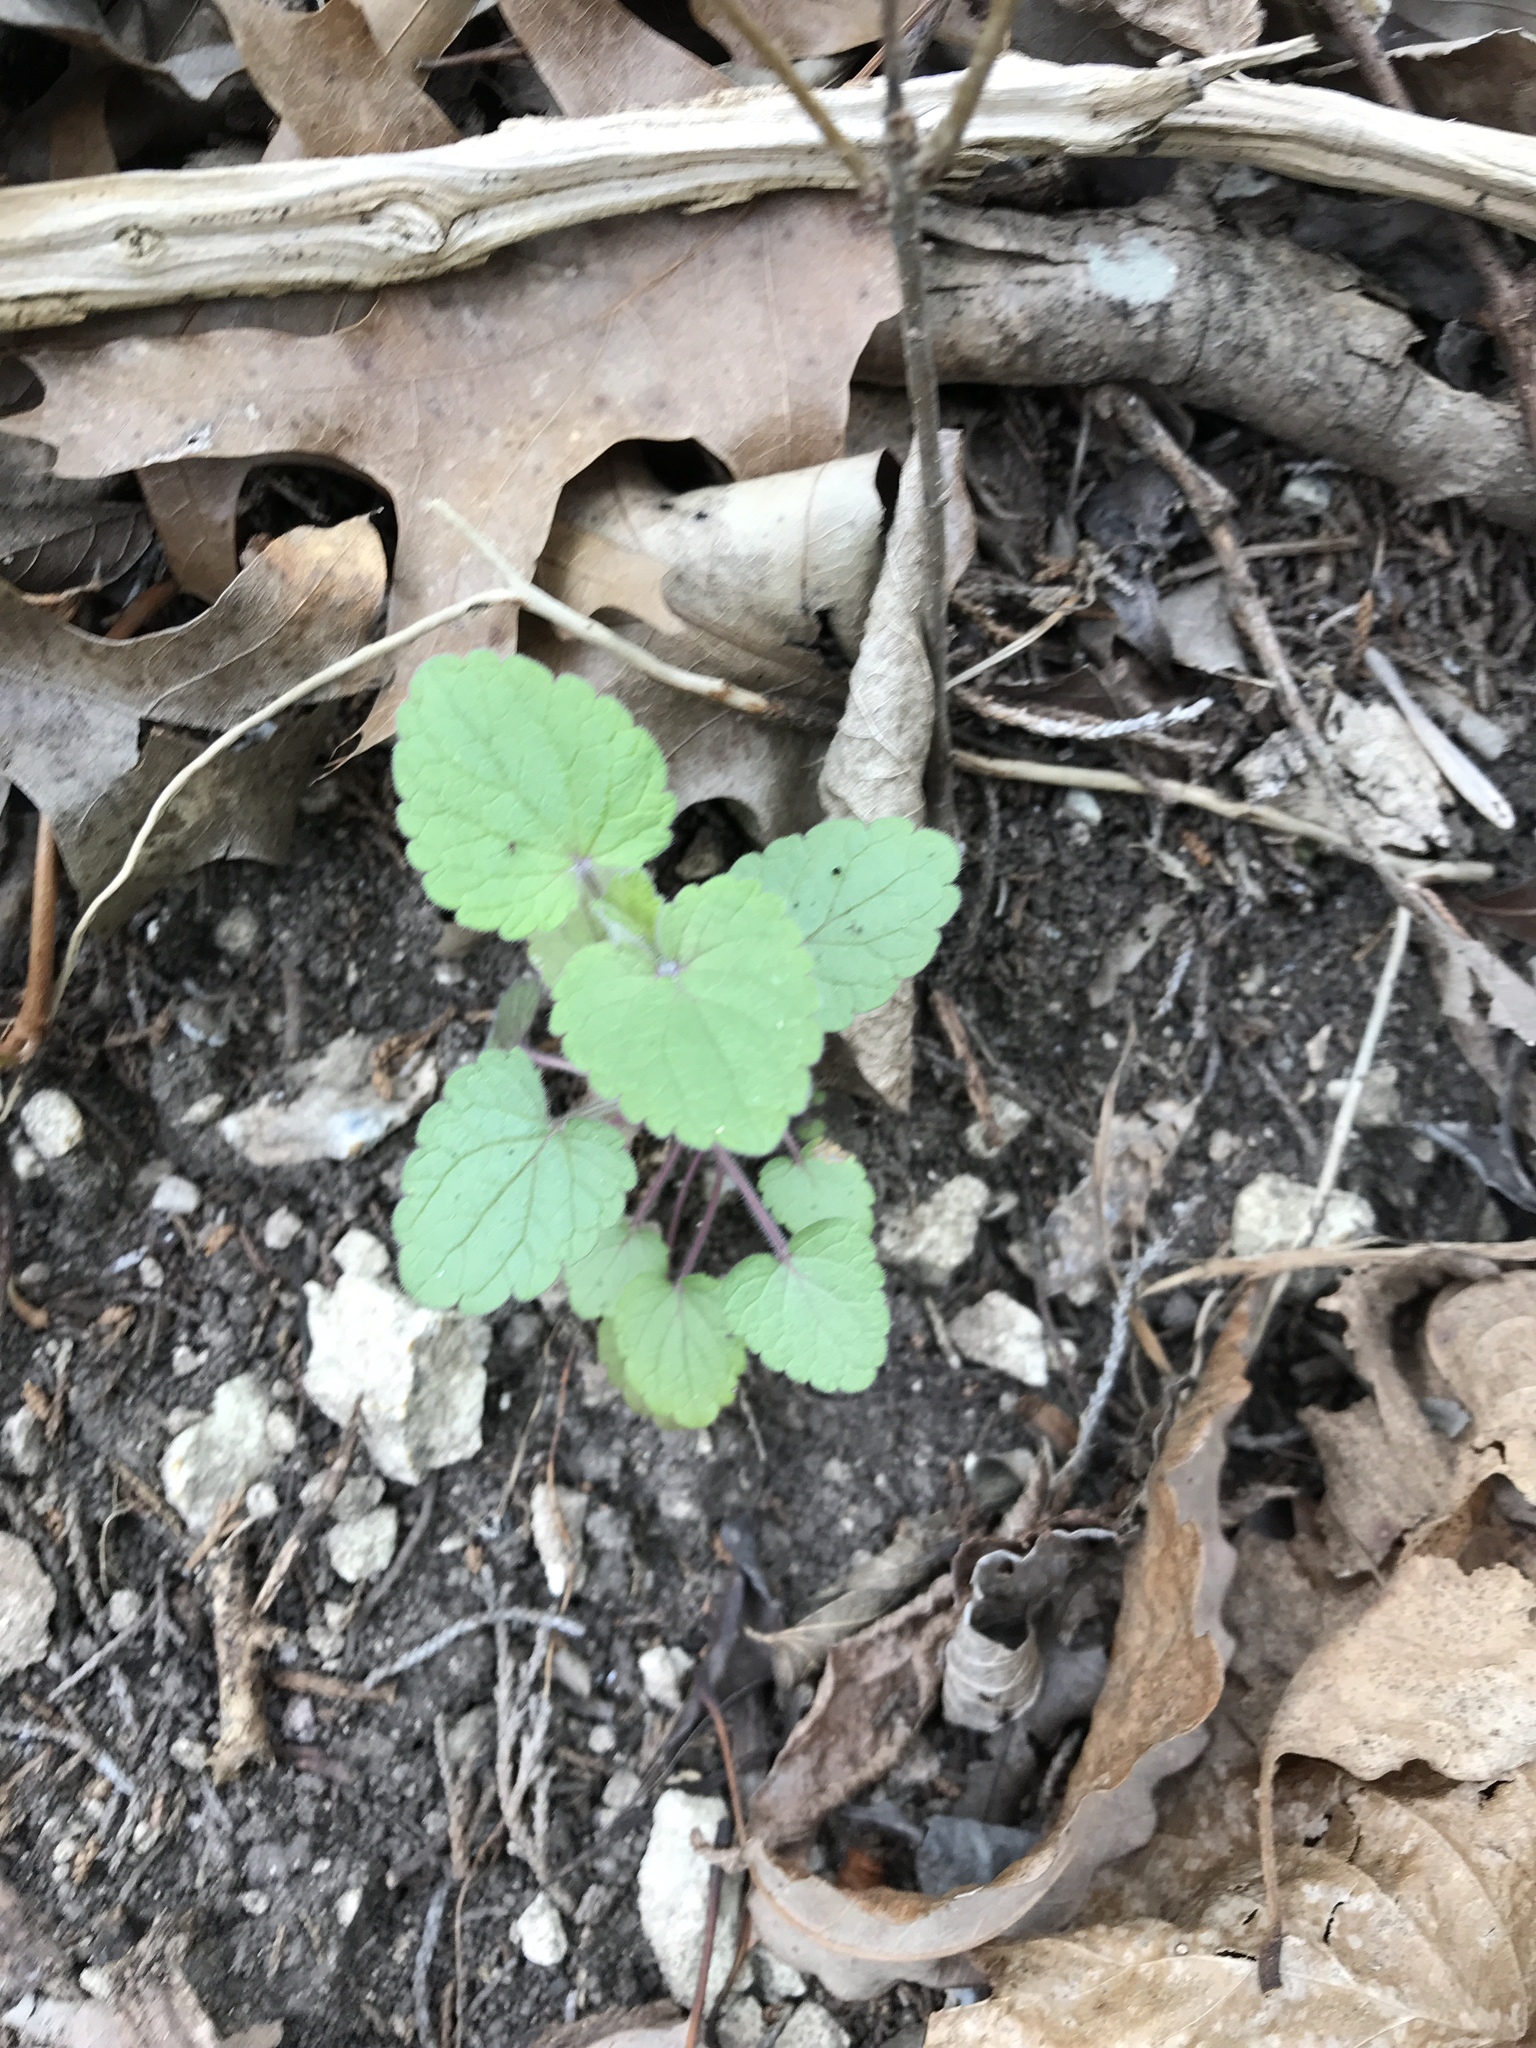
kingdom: Plantae
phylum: Tracheophyta
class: Magnoliopsida
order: Lamiales
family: Lamiaceae
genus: Salvia
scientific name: Salvia roemeriana
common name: Cedar sage
